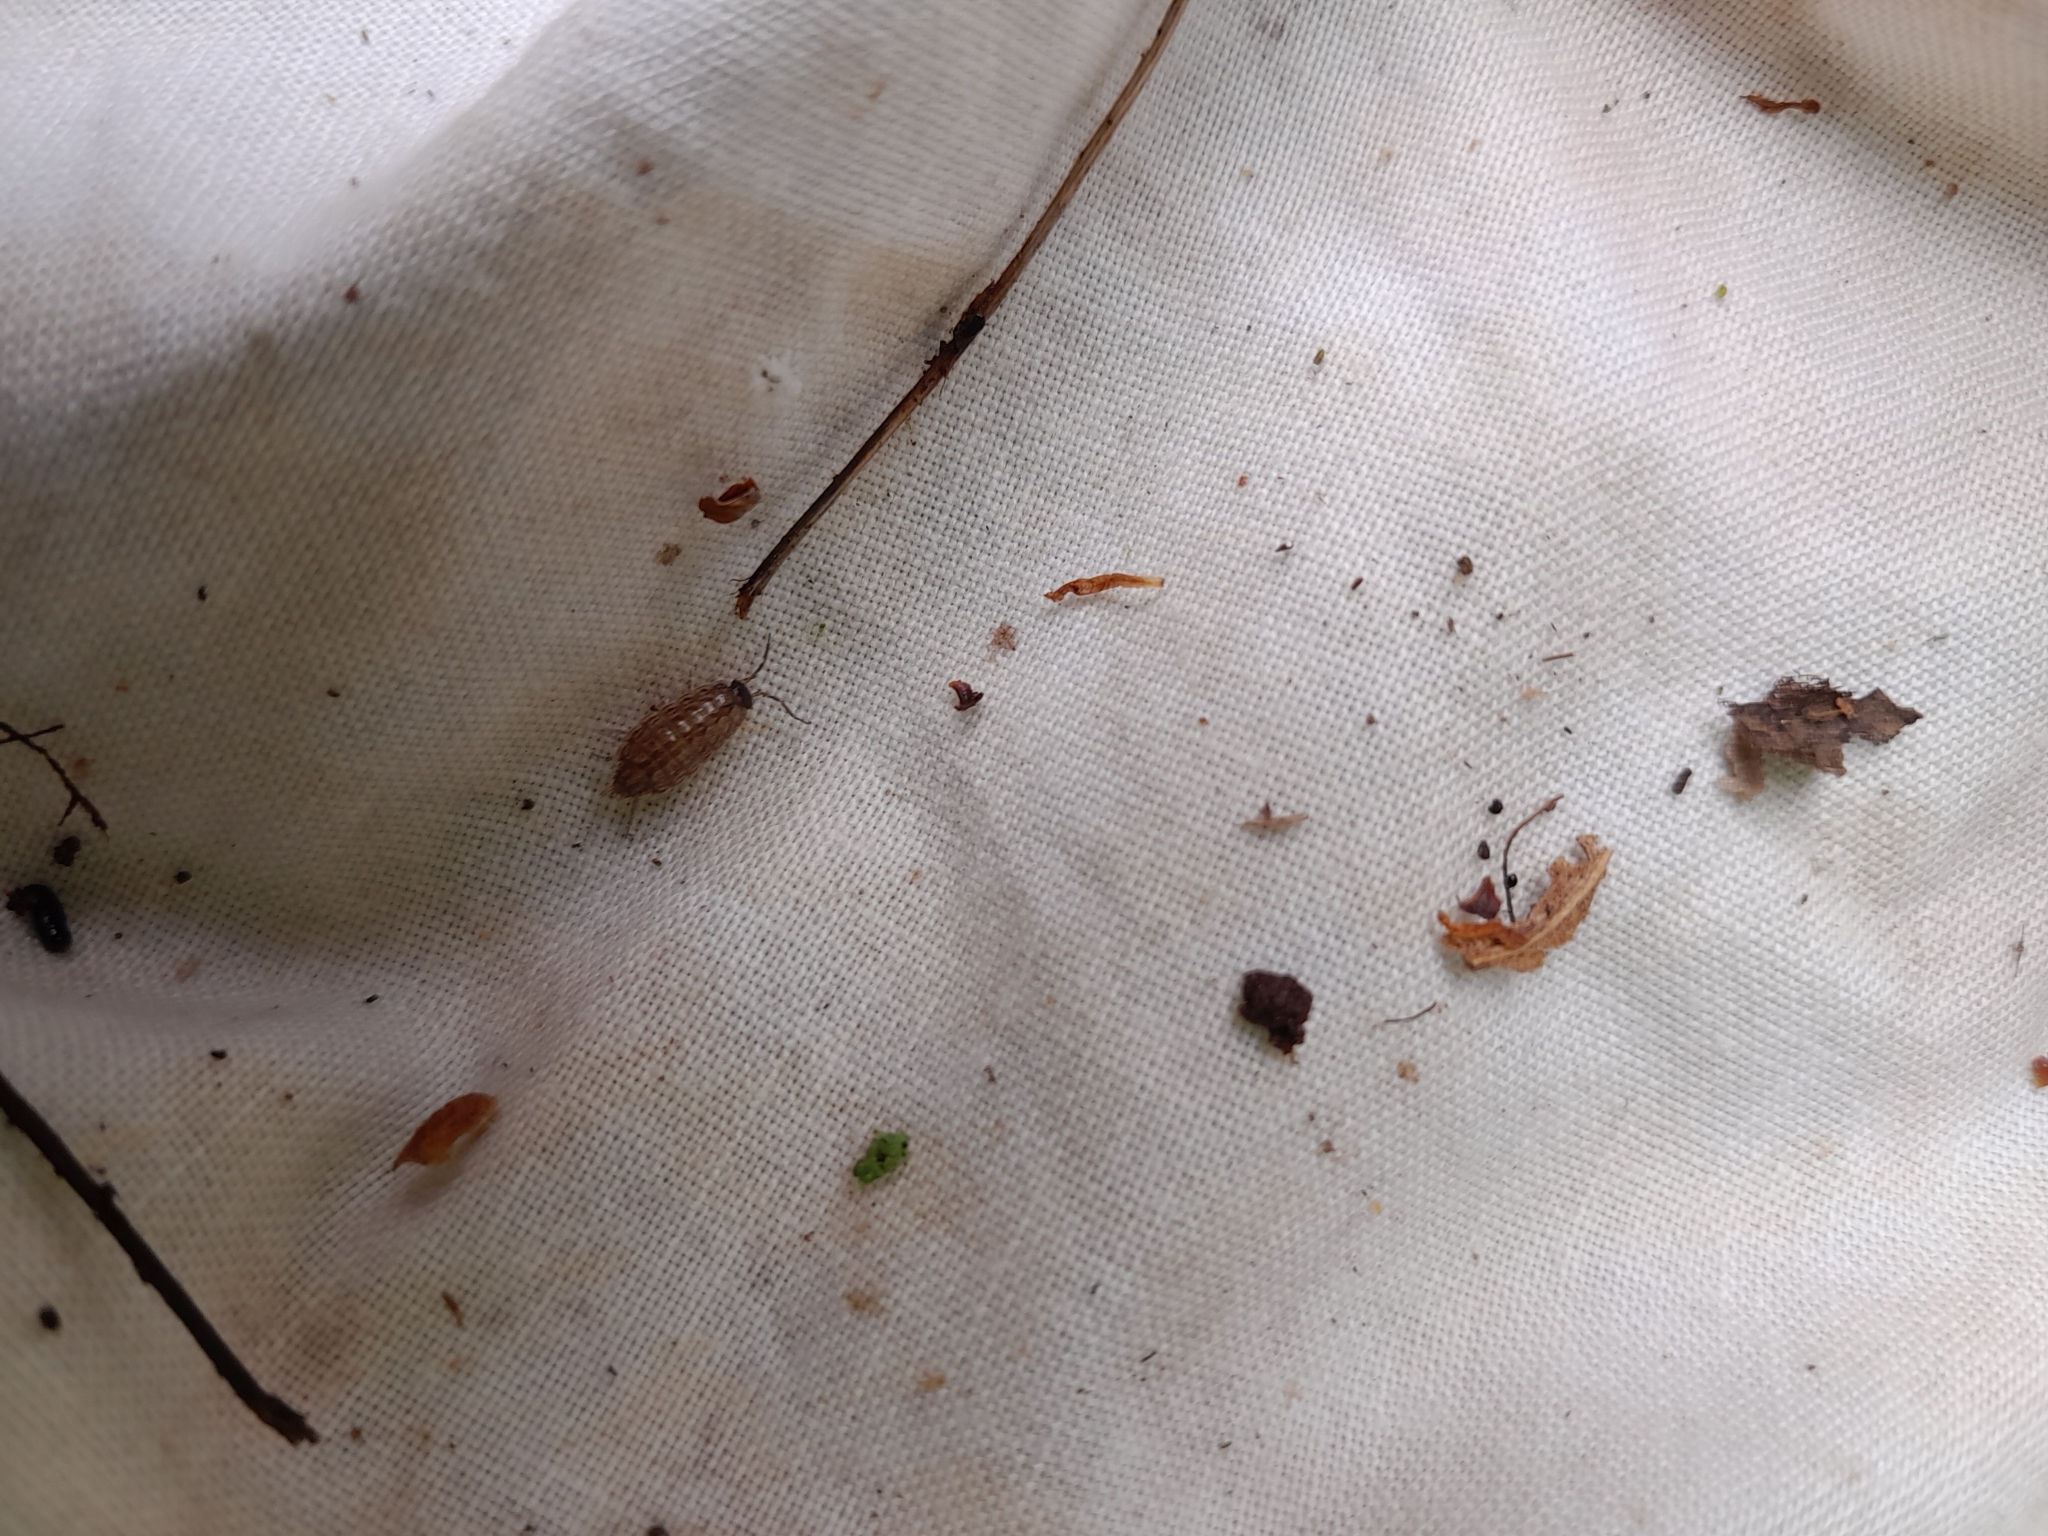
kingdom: Animalia
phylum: Arthropoda
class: Malacostraca
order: Isopoda
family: Philosciidae
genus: Philoscia
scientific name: Philoscia muscorum
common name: Common striped woodlouse
